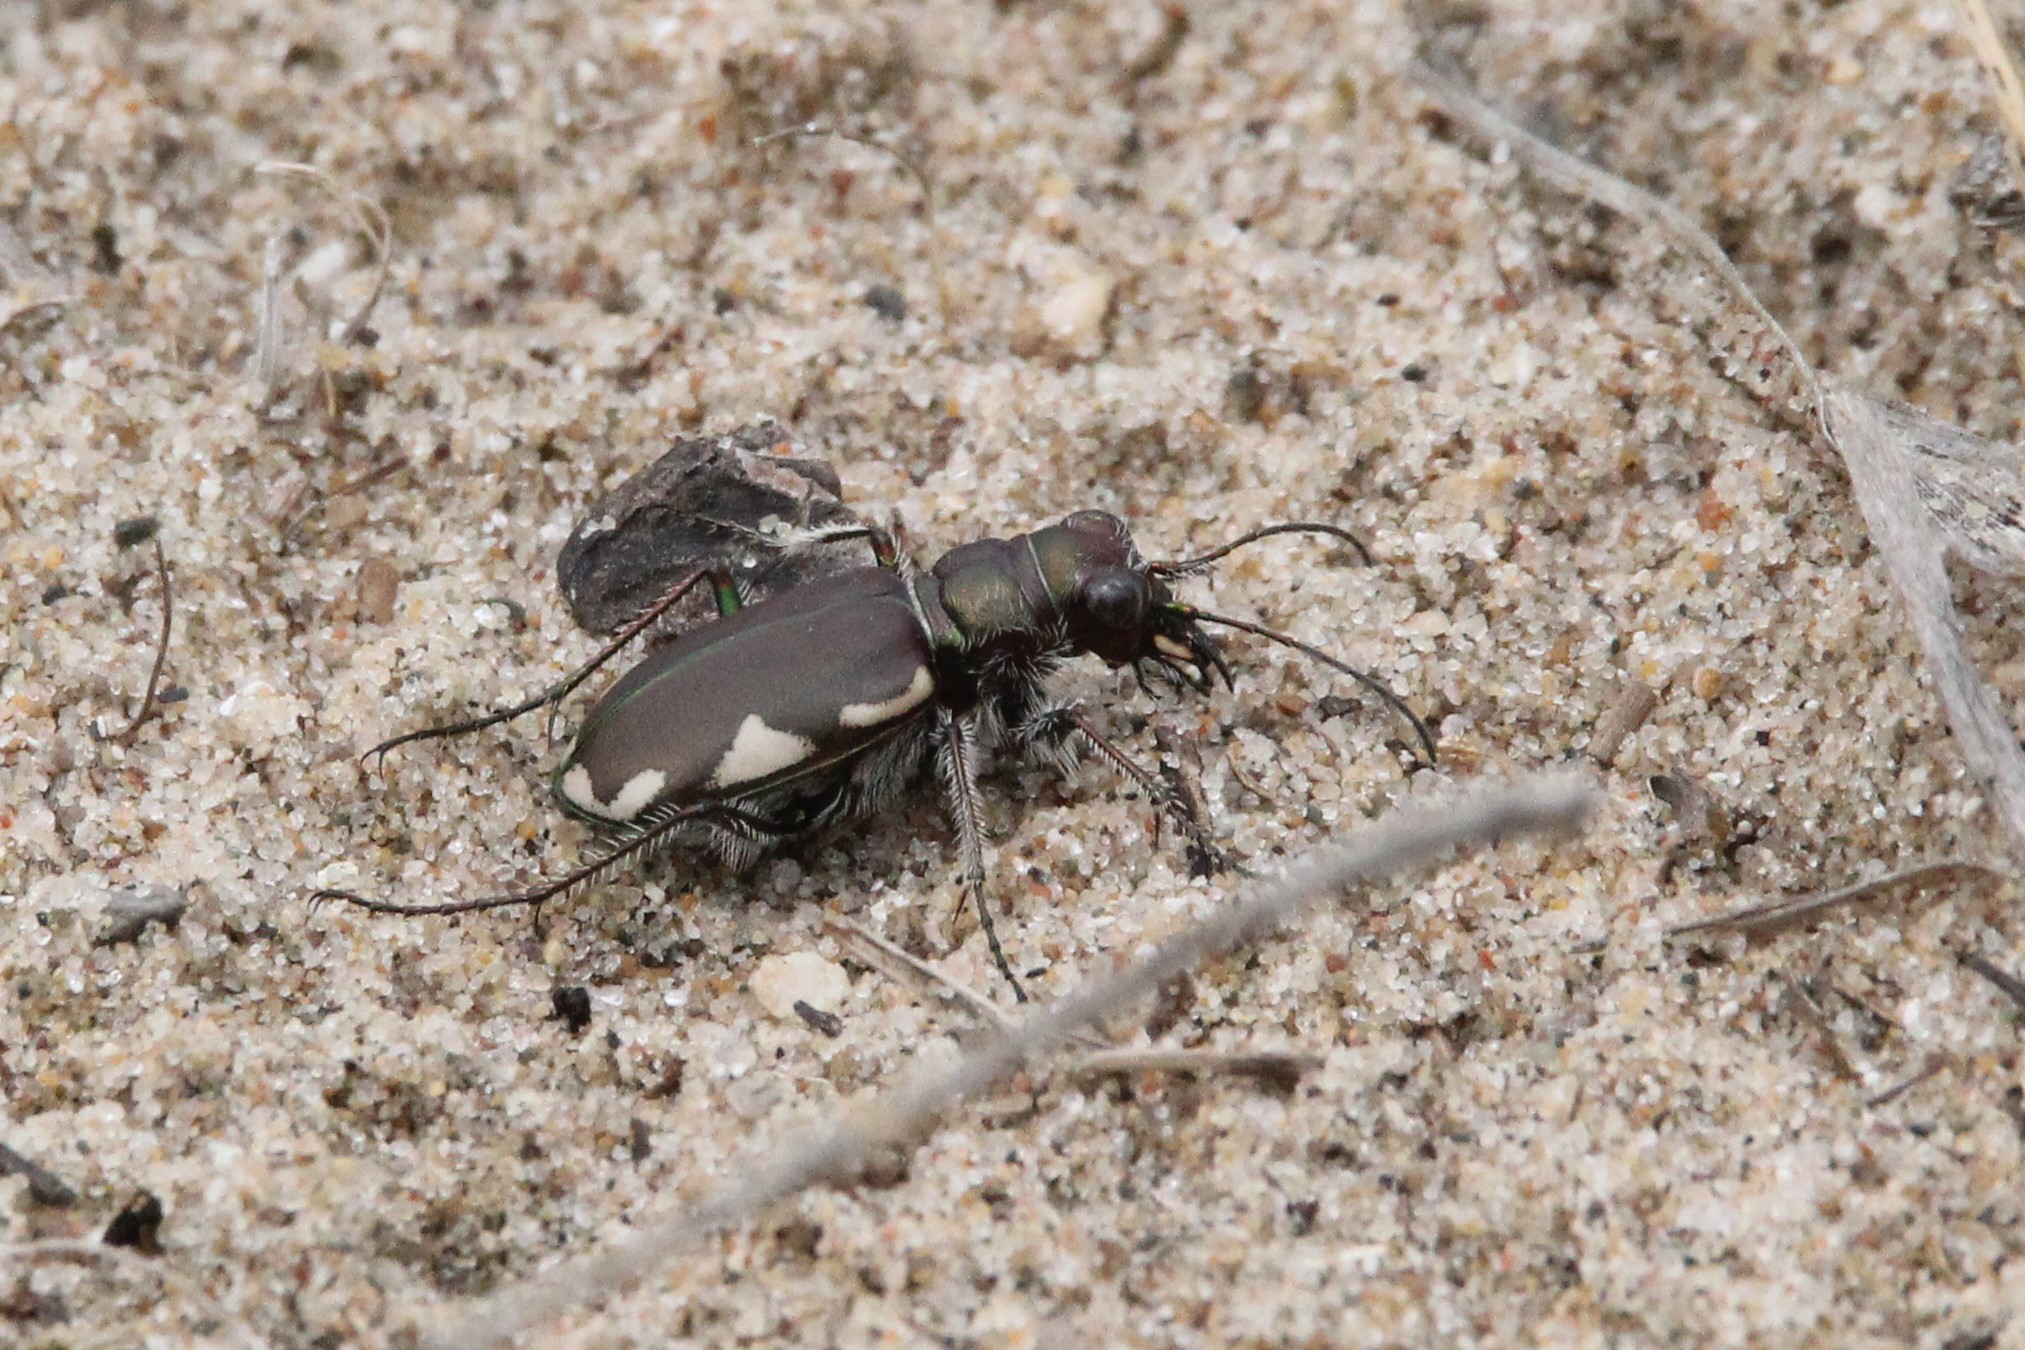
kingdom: Animalia
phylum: Arthropoda
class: Insecta
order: Coleoptera
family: Carabidae
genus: Cicindela
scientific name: Cicindela scutellaris
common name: Festive tiger beetle
